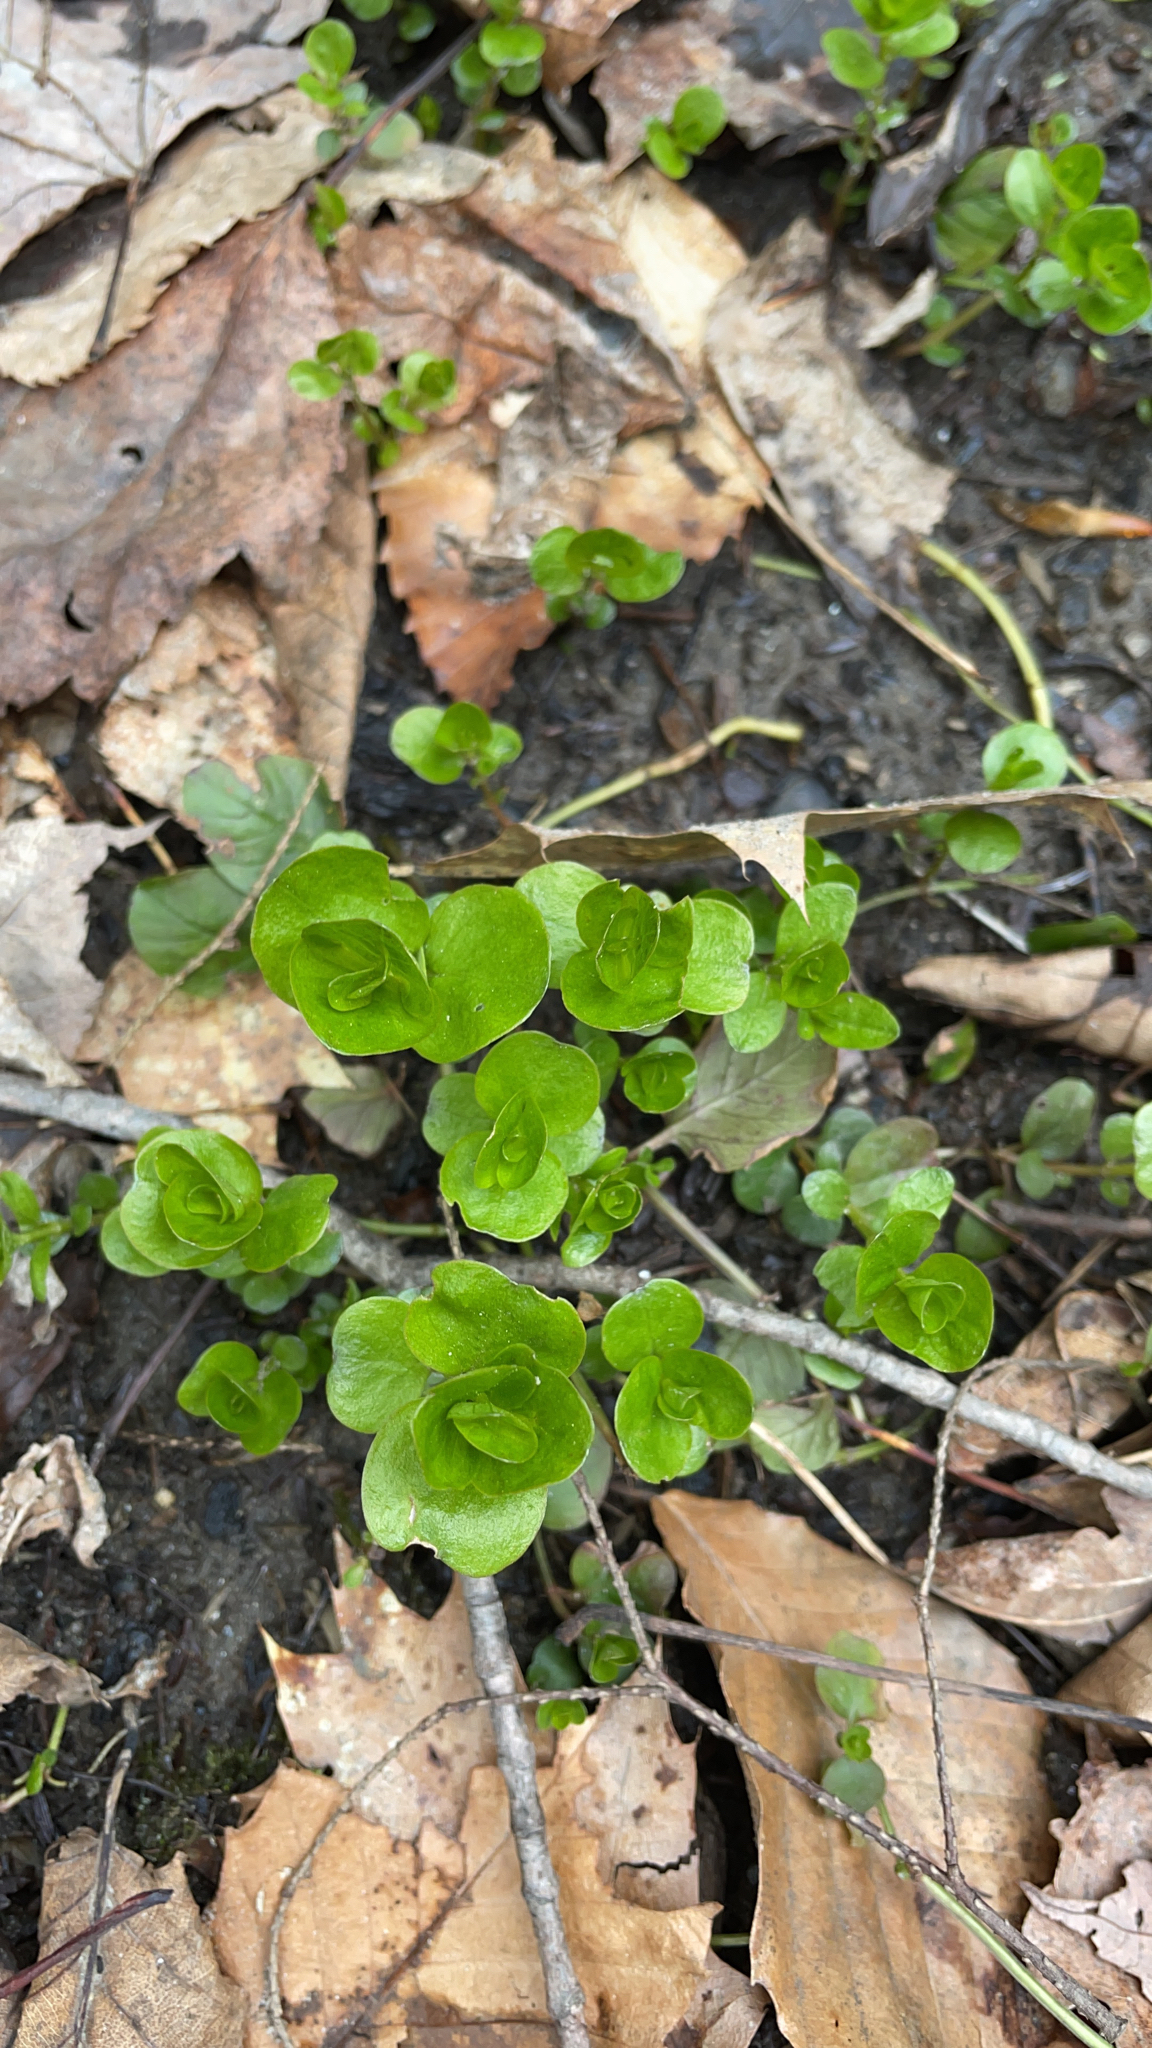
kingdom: Plantae
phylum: Tracheophyta
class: Magnoliopsida
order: Ericales
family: Primulaceae
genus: Lysimachia
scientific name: Lysimachia nummularia
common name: Moneywort
